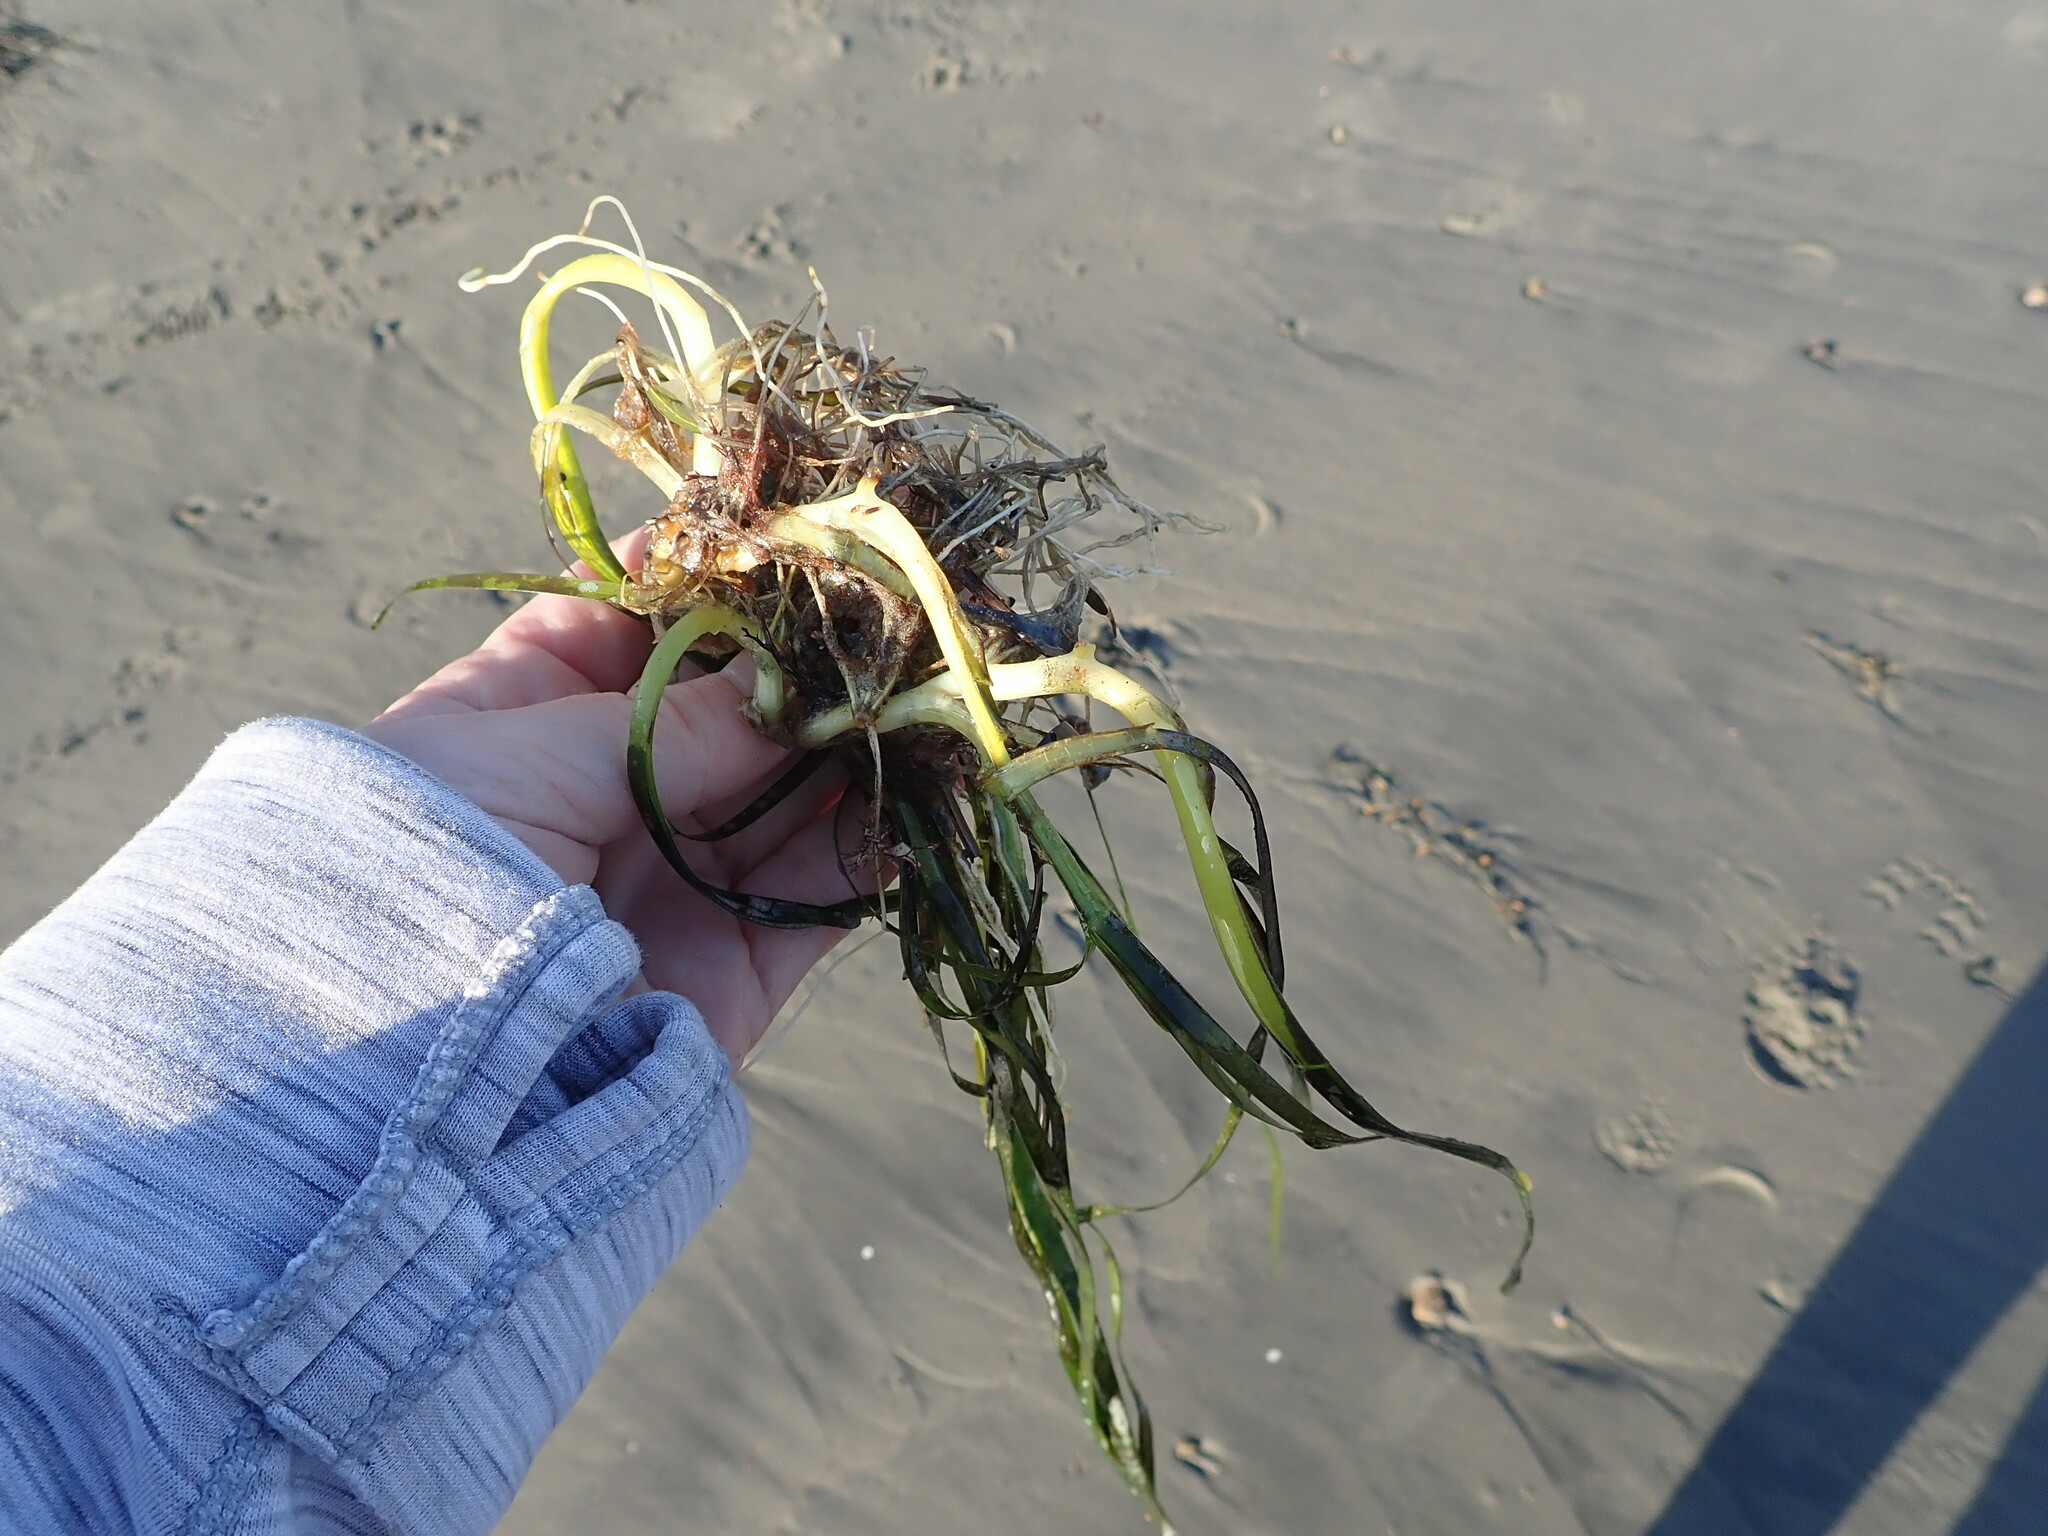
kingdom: Plantae
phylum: Tracheophyta
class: Liliopsida
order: Alismatales
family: Zosteraceae
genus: Zostera
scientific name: Zostera marina
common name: Eelgrass
